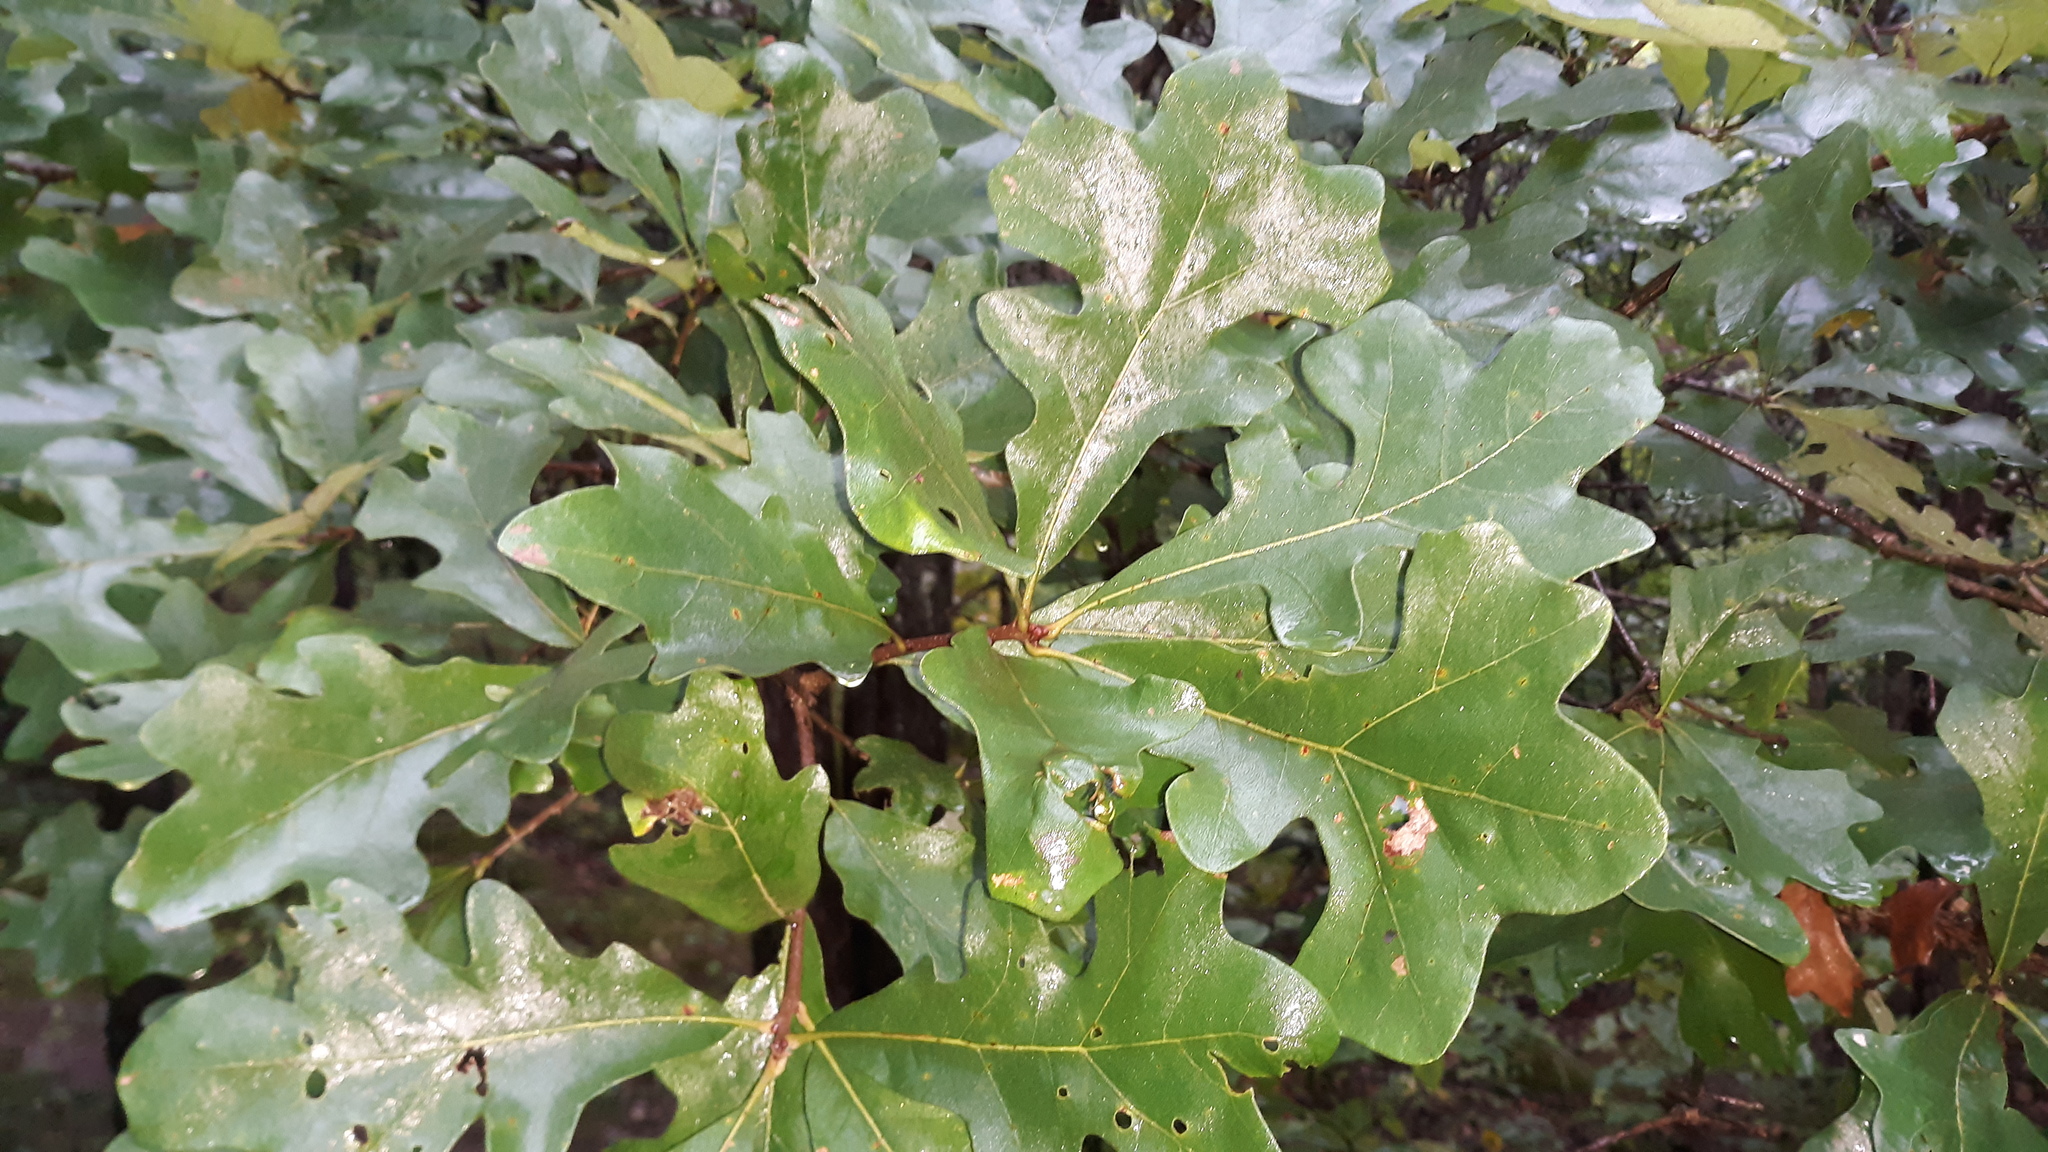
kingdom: Plantae
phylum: Tracheophyta
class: Magnoliopsida
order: Fagales
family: Fagaceae
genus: Quercus
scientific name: Quercus stellata
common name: Post oak
